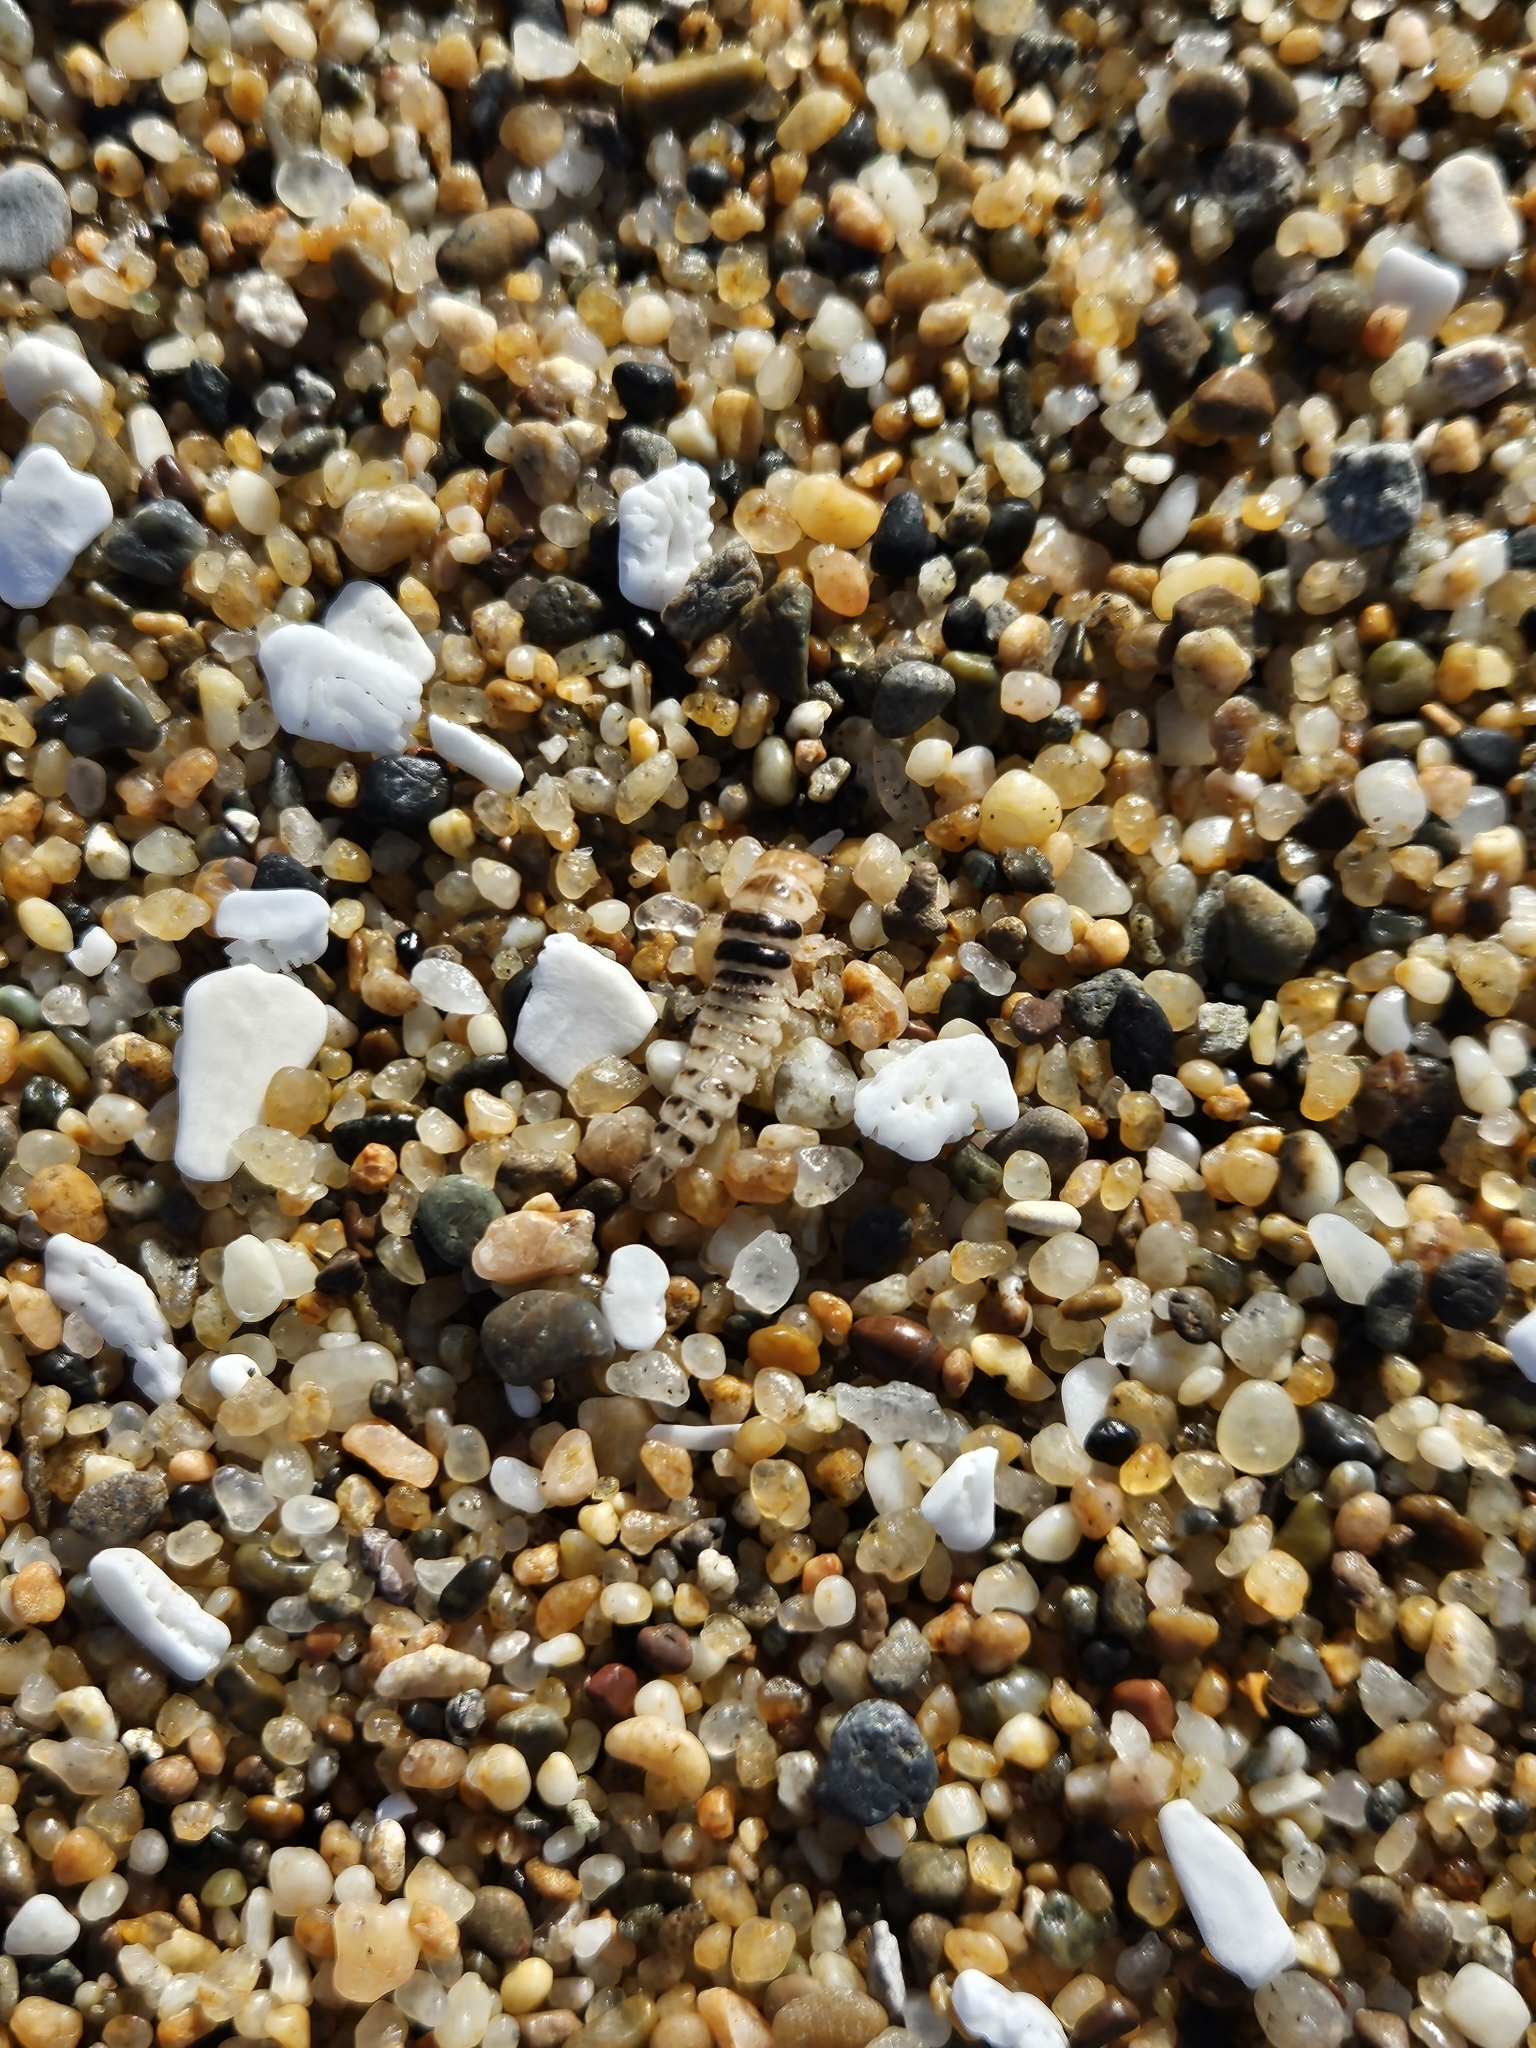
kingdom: Animalia
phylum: Arthropoda
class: Insecta
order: Coleoptera
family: Staphylinidae
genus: Thinopinus
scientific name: Thinopinus pictus
